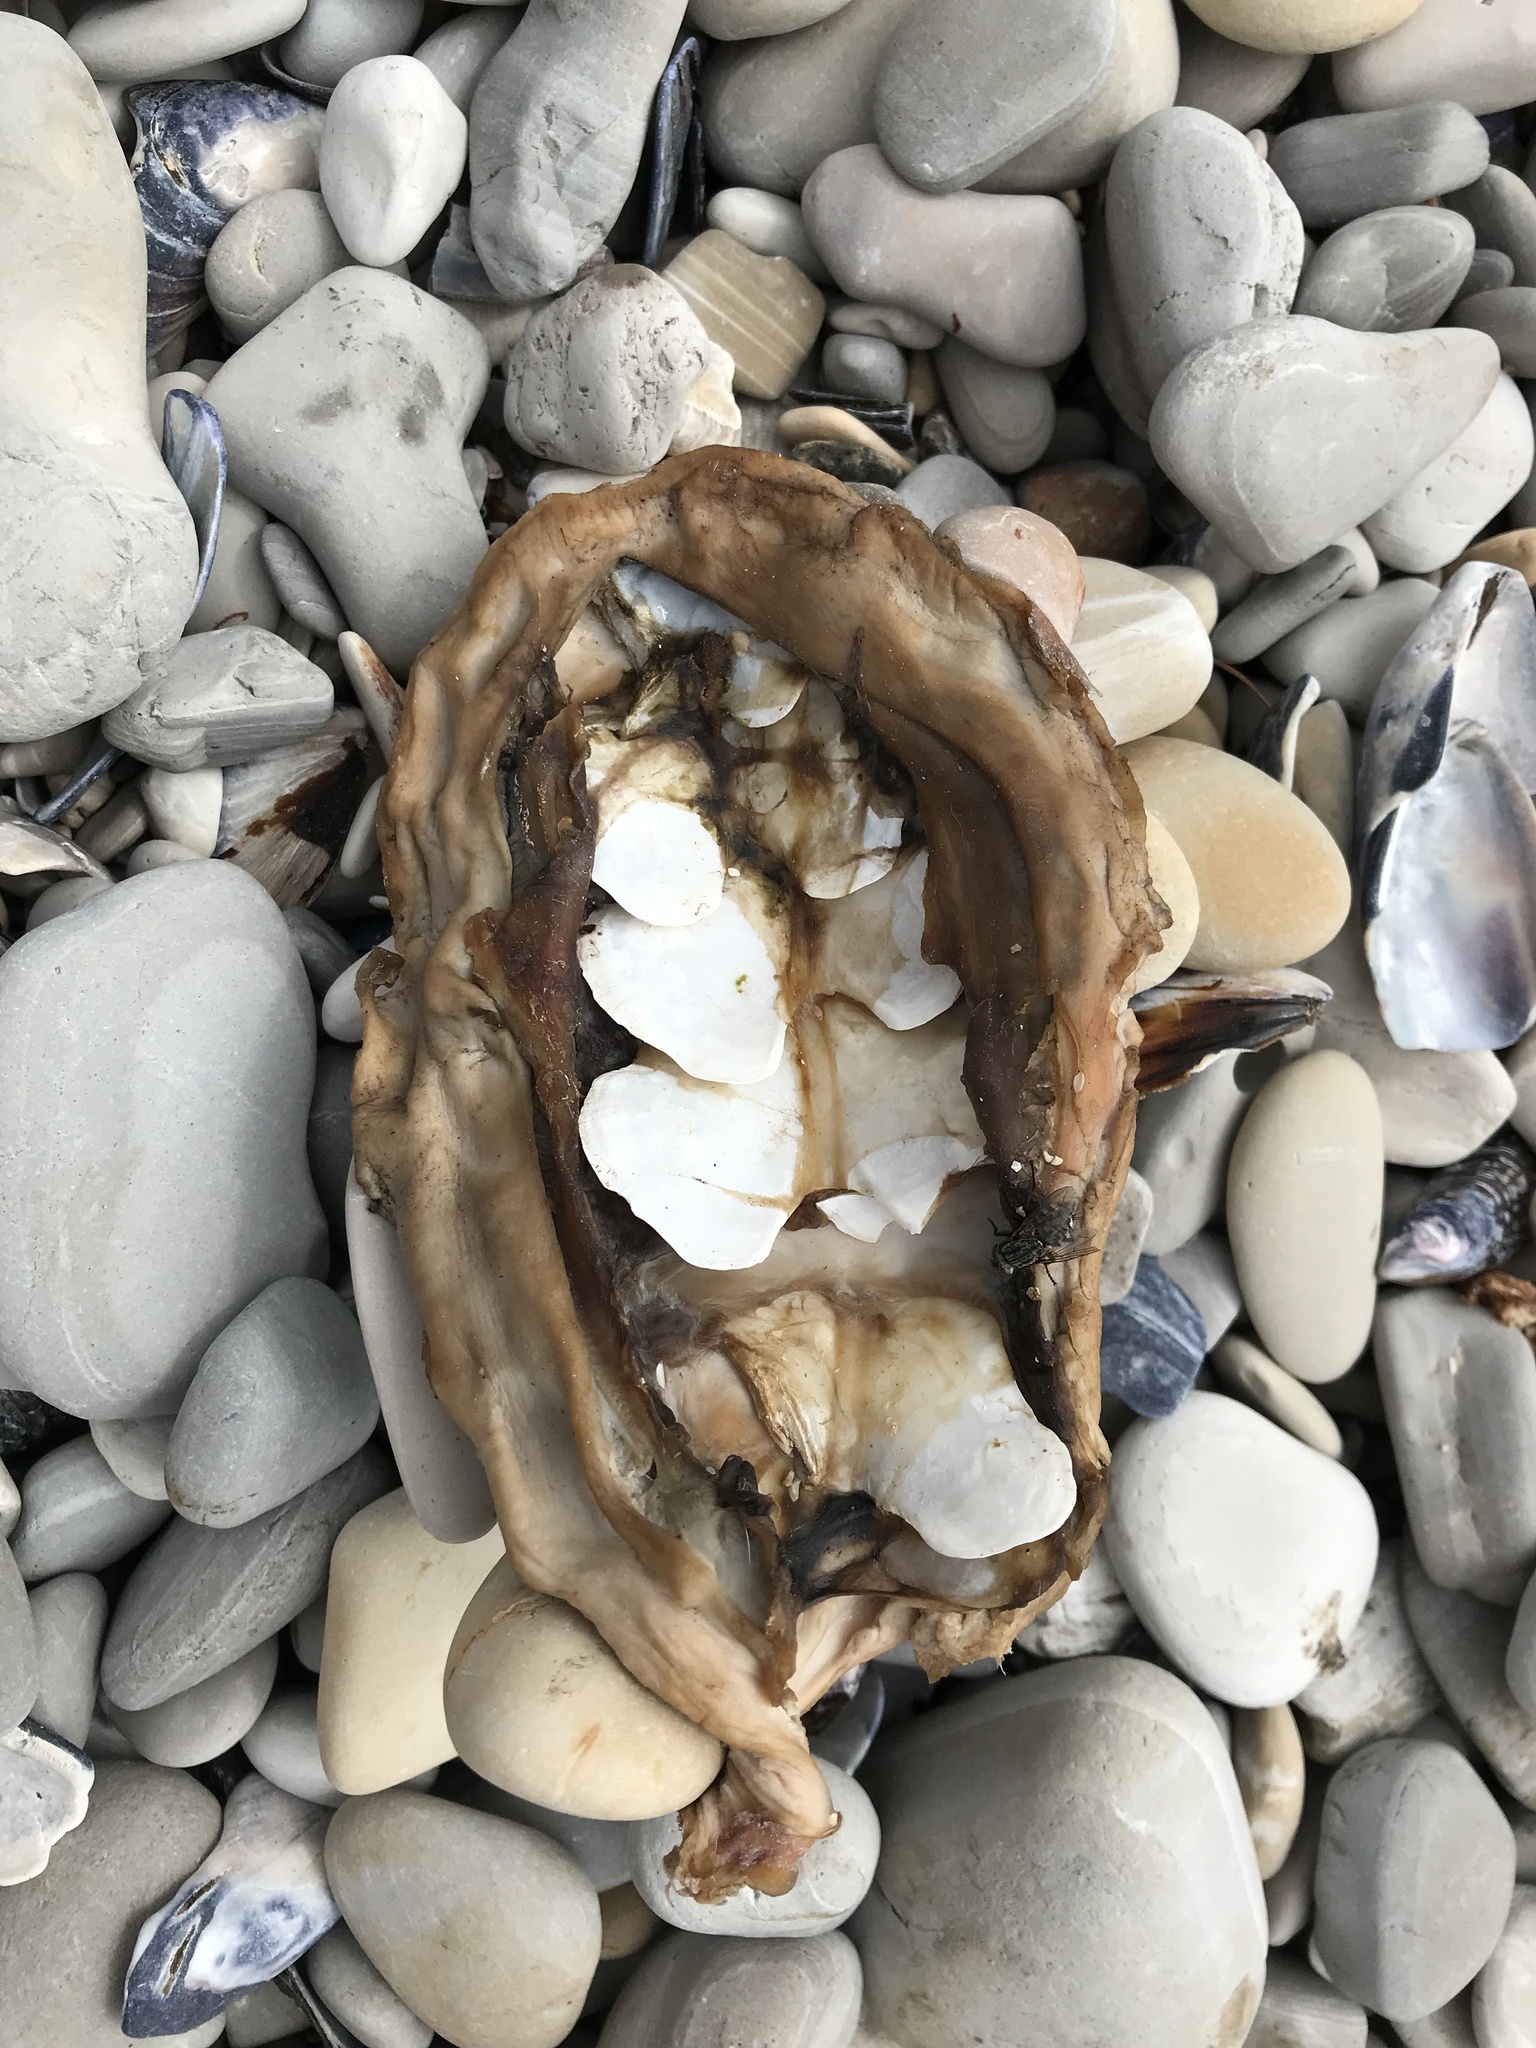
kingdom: Animalia
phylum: Mollusca
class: Polyplacophora
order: Chitonida
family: Acanthochitonidae
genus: Cryptochiton
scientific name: Cryptochiton stelleri
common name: Giant pacific chiton
